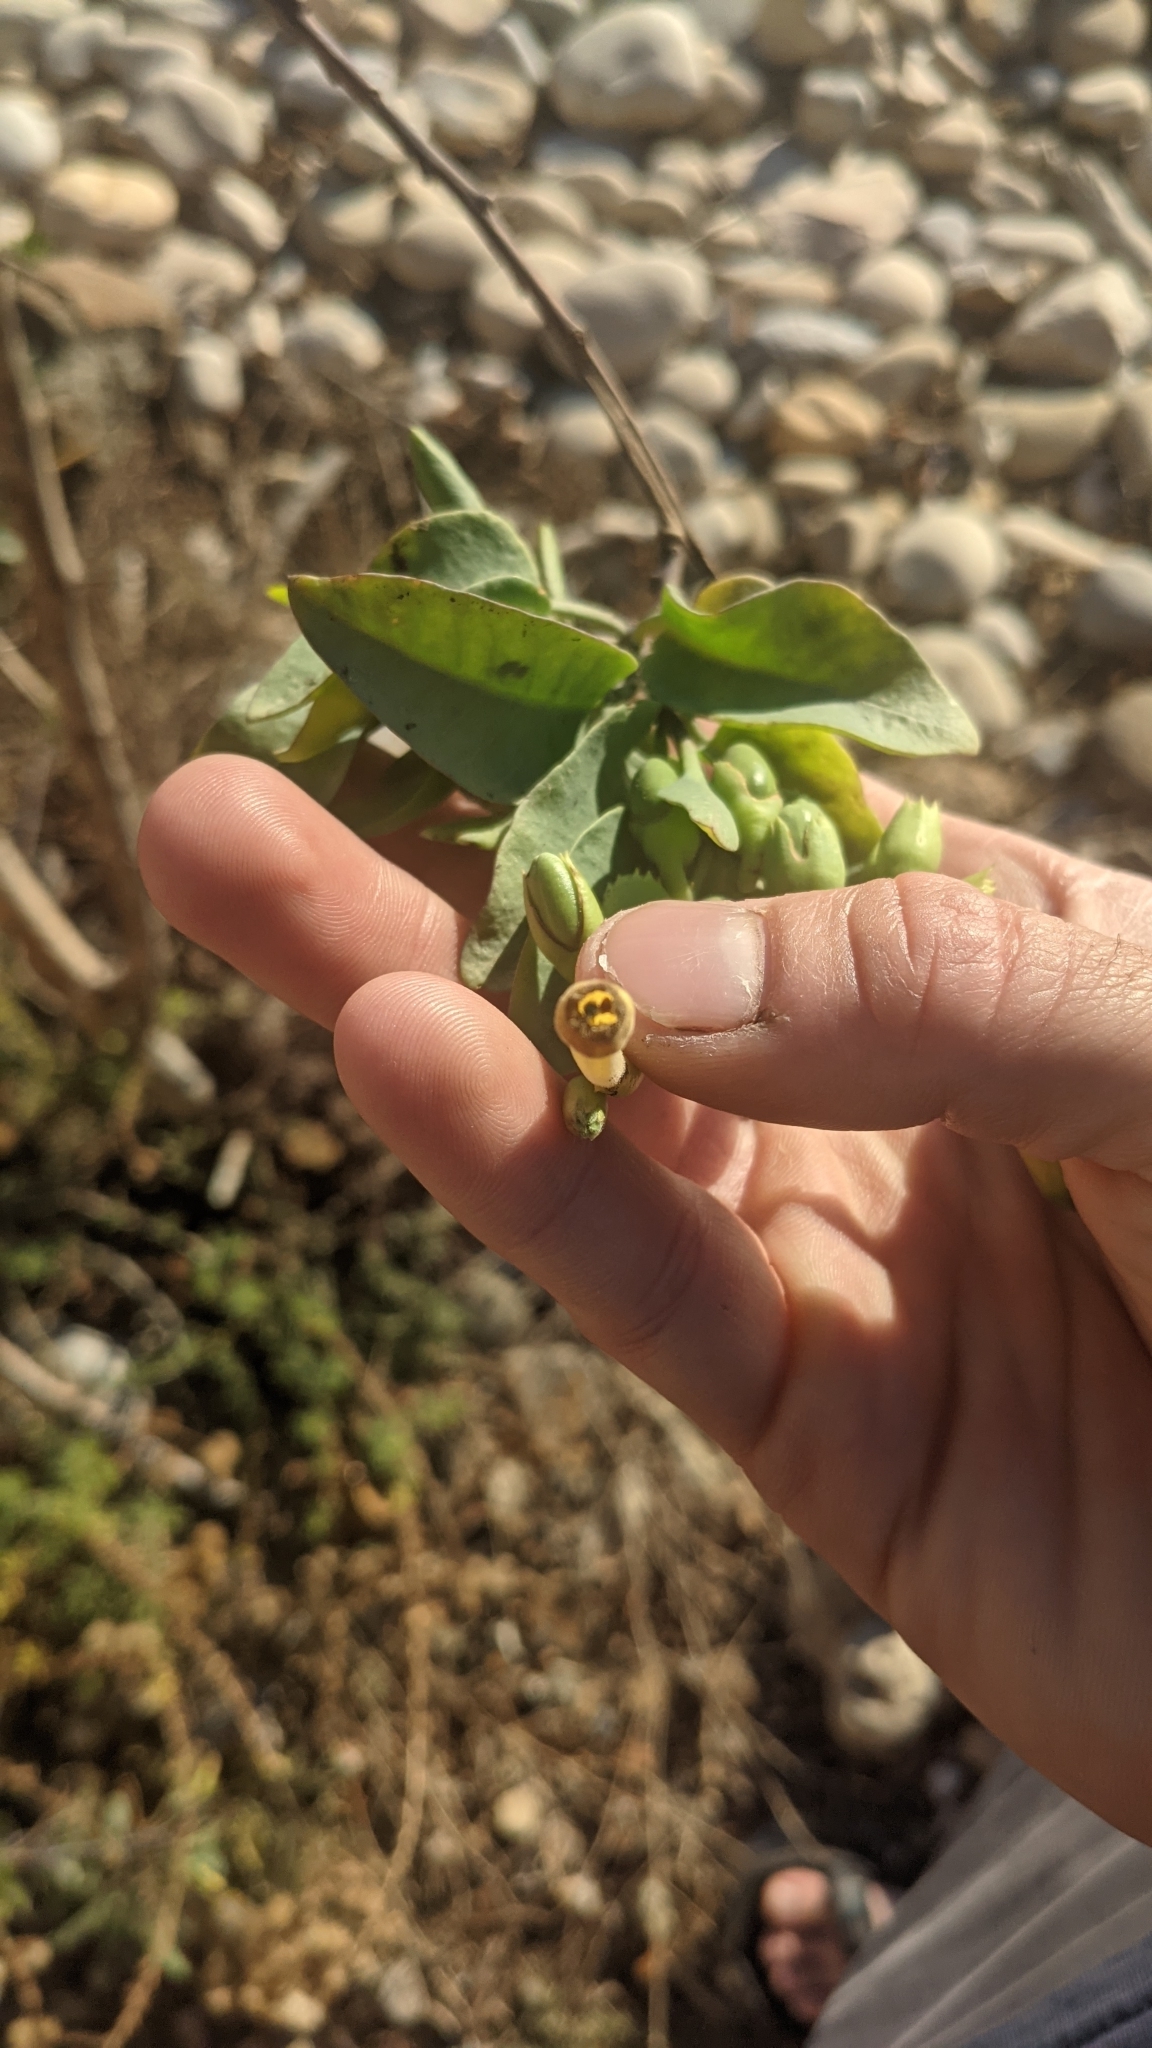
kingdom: Plantae
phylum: Tracheophyta
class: Magnoliopsida
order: Solanales
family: Solanaceae
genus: Nicotiana
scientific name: Nicotiana glauca
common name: Tree tobacco
